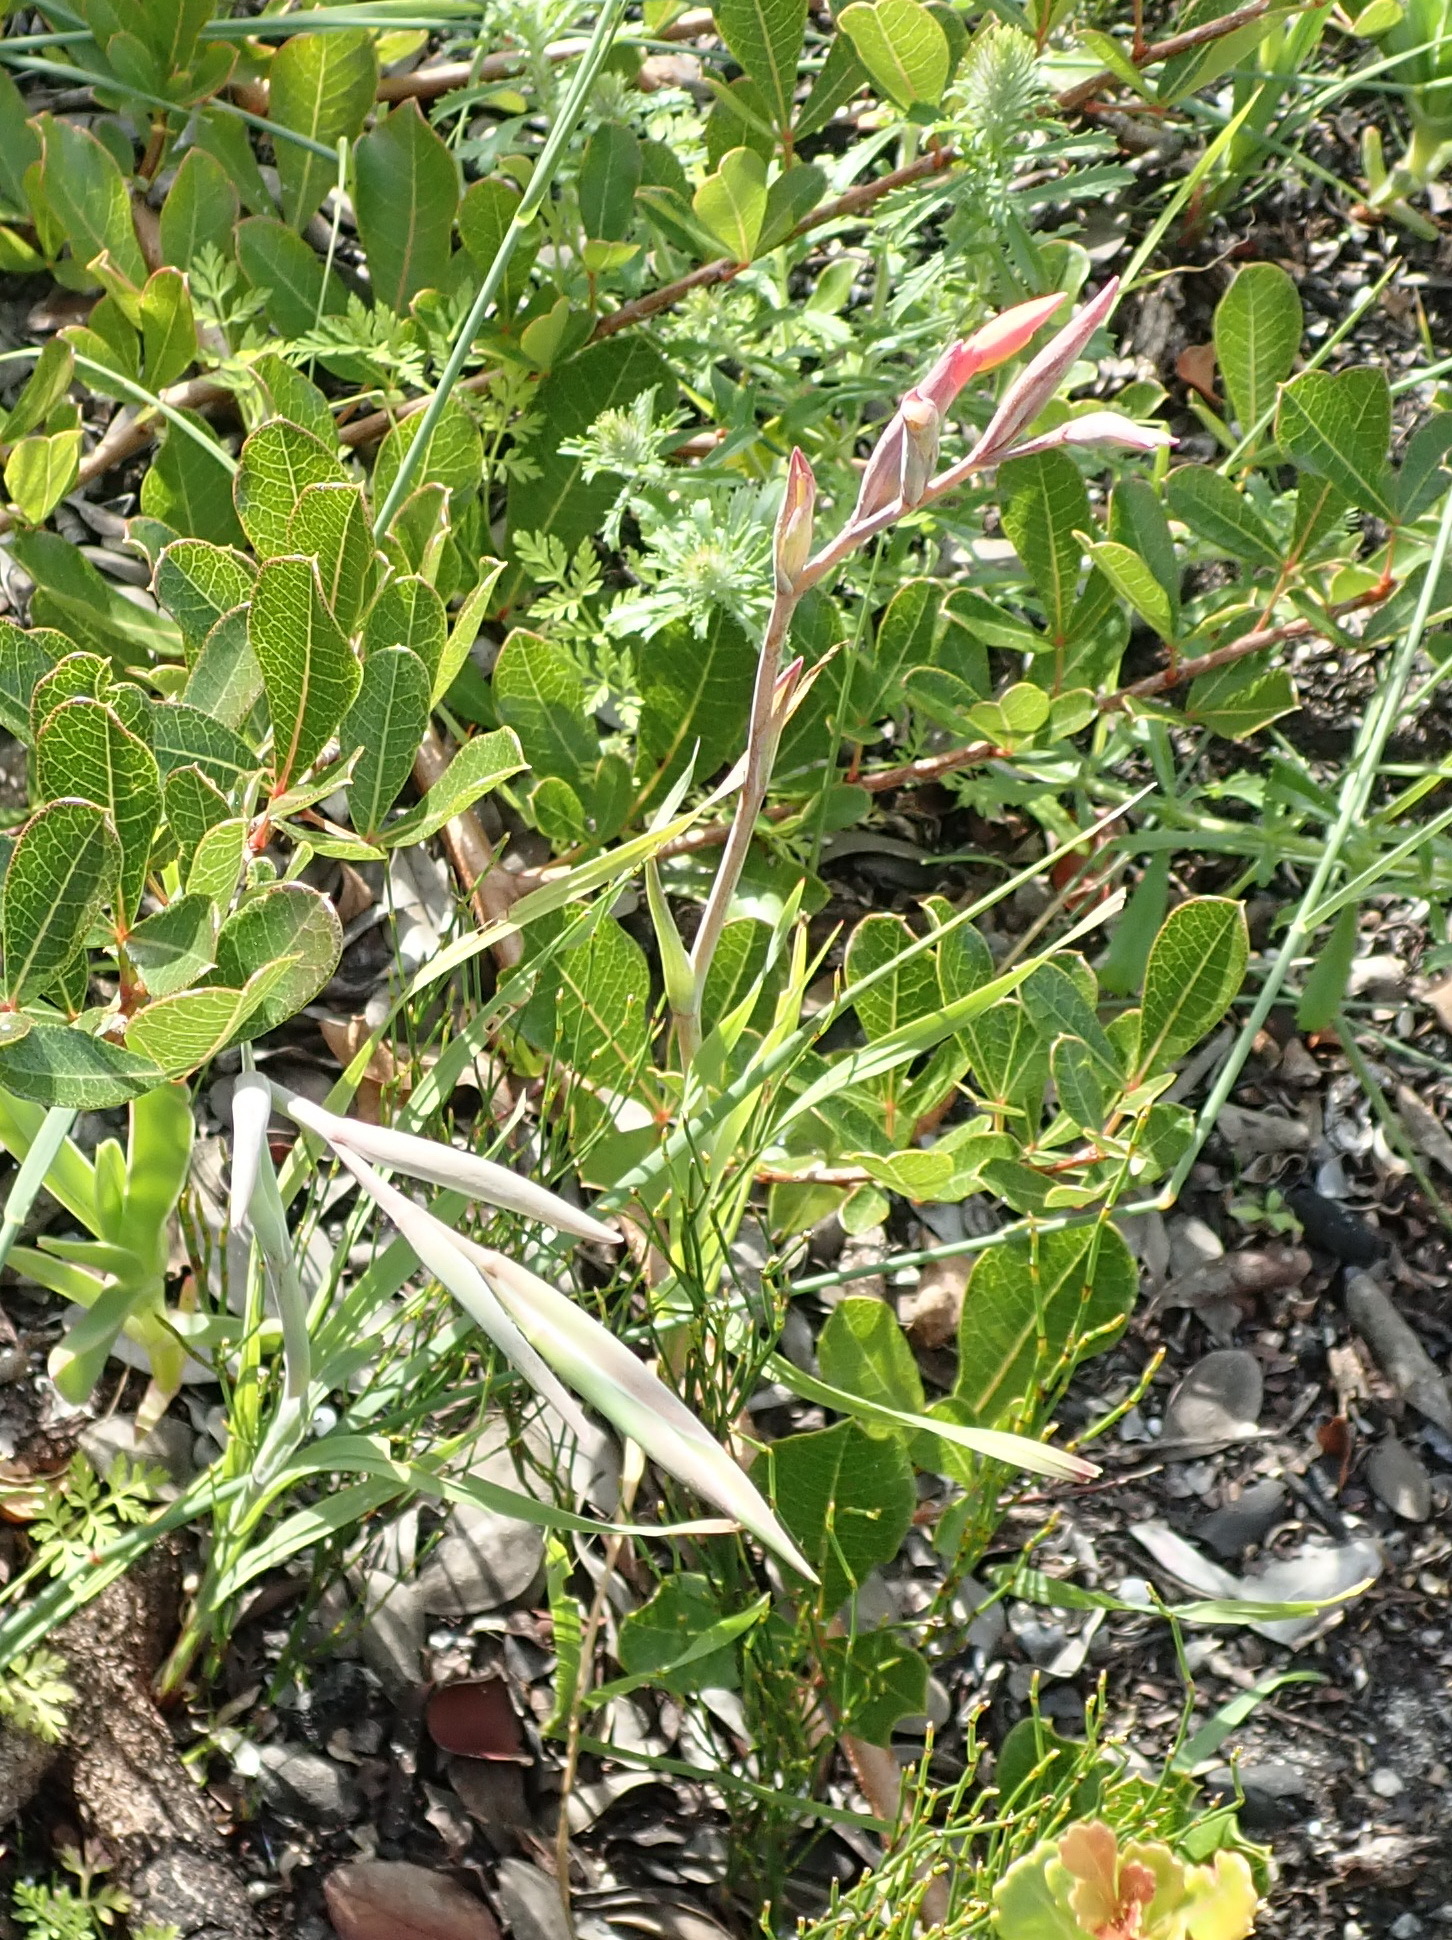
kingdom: Plantae
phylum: Tracheophyta
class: Liliopsida
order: Asparagales
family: Iridaceae
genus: Gladiolus
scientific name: Gladiolus cunonius
